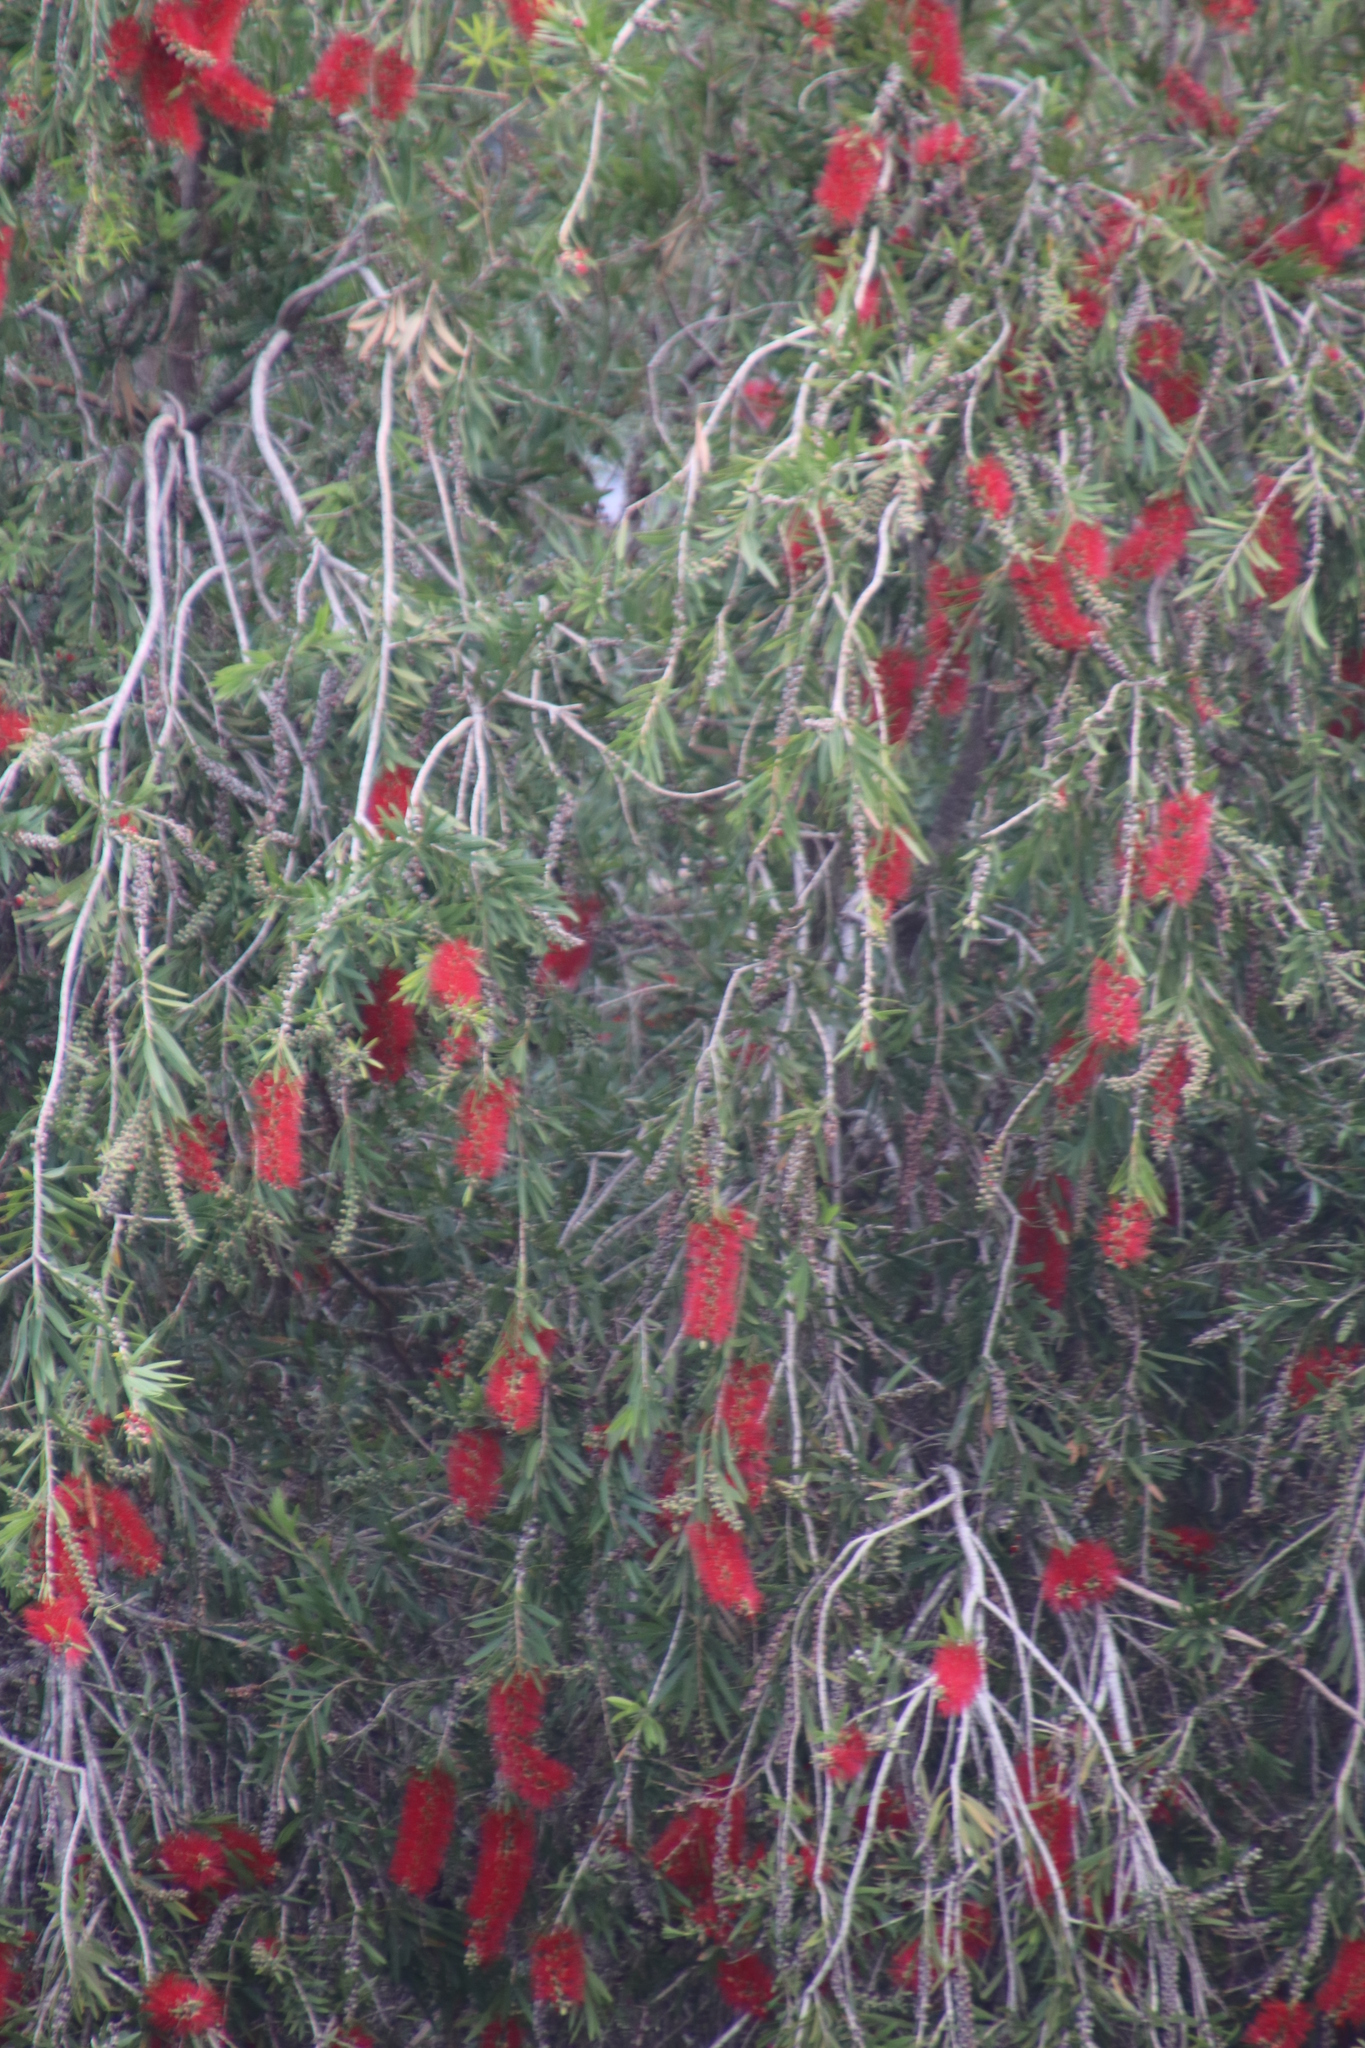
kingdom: Plantae
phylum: Tracheophyta
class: Magnoliopsida
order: Myrtales
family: Myrtaceae
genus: Callistemon
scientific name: Callistemon viminalis
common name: Drooping bottlebrush
